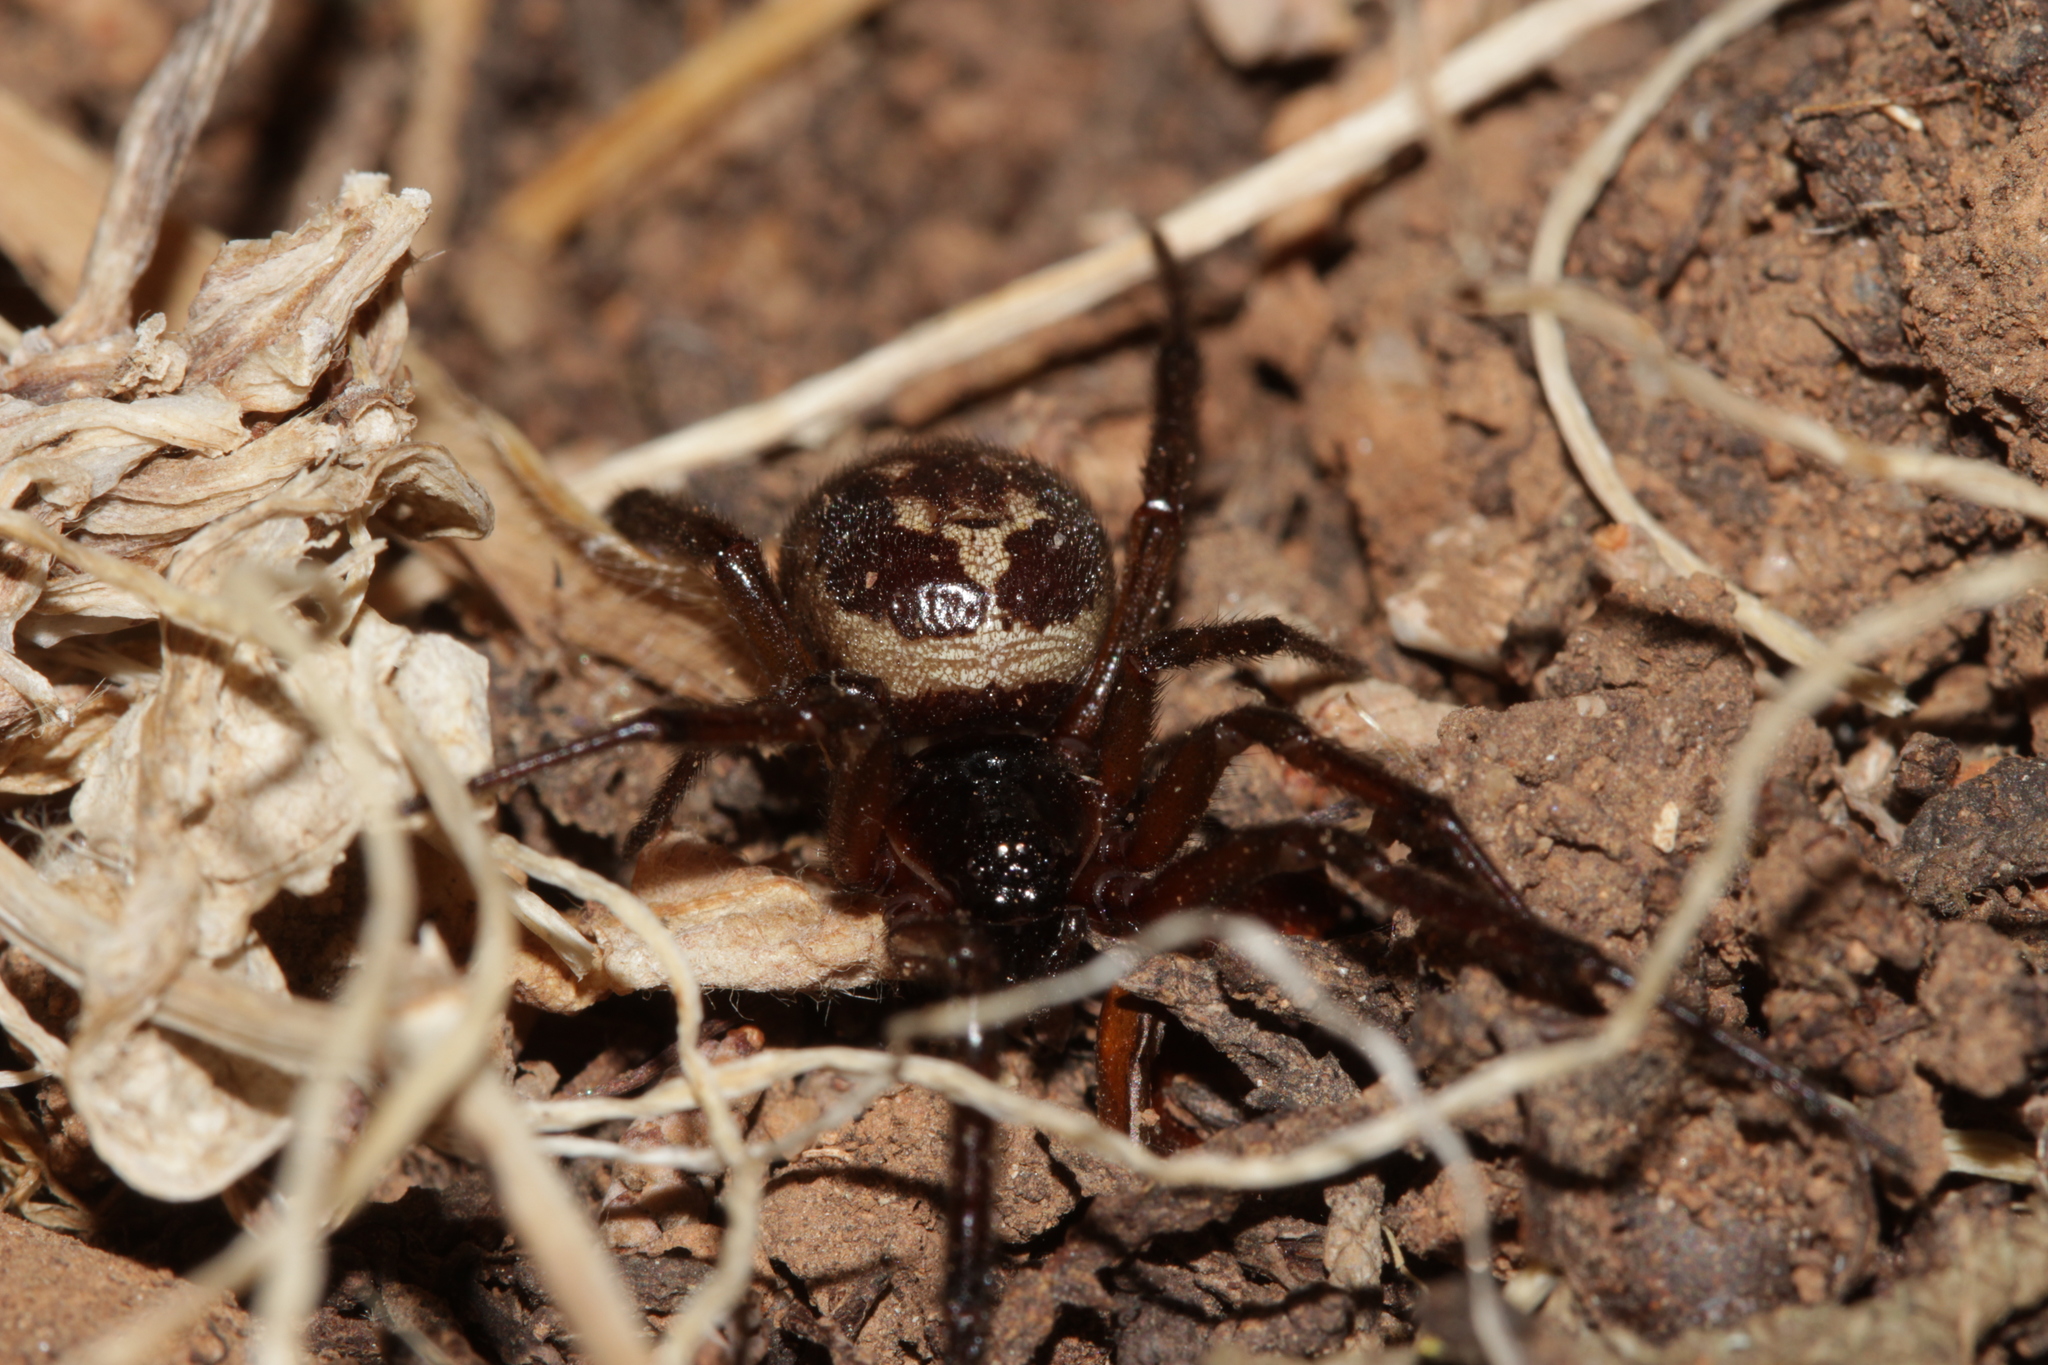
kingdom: Animalia
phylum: Arthropoda
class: Arachnida
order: Araneae
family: Theridiidae
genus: Steatoda
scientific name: Steatoda nobilis
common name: Cobweb weaver
